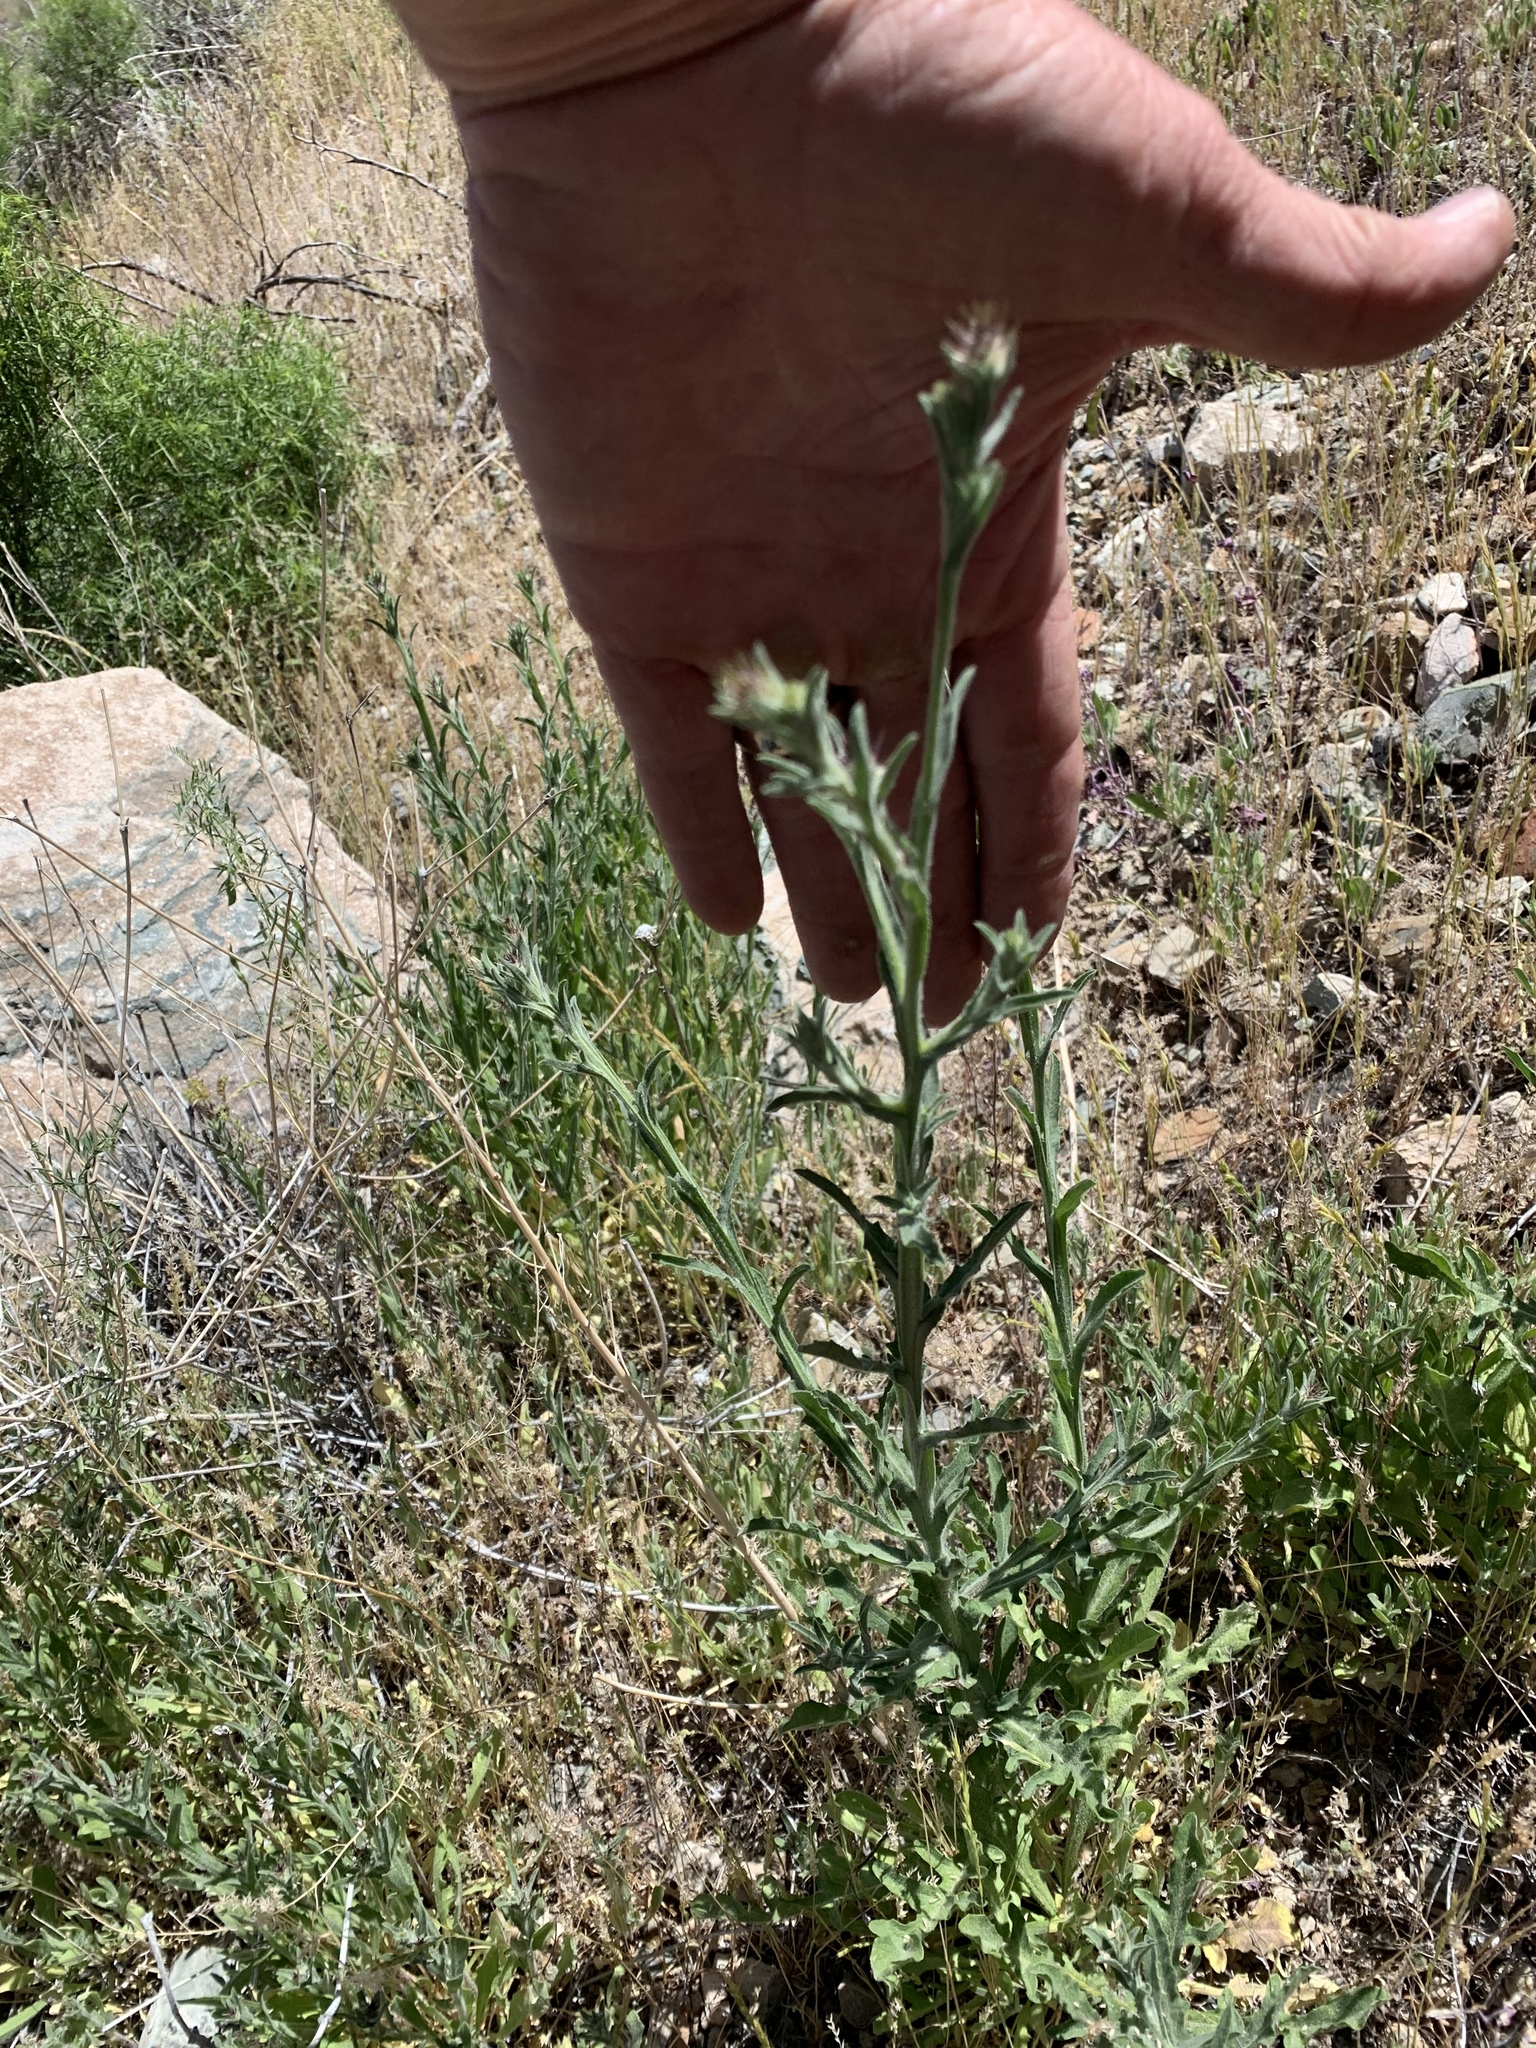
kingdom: Plantae
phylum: Tracheophyta
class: Magnoliopsida
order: Asterales
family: Asteraceae
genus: Centaurea
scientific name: Centaurea melitensis
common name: Maltese star-thistle
